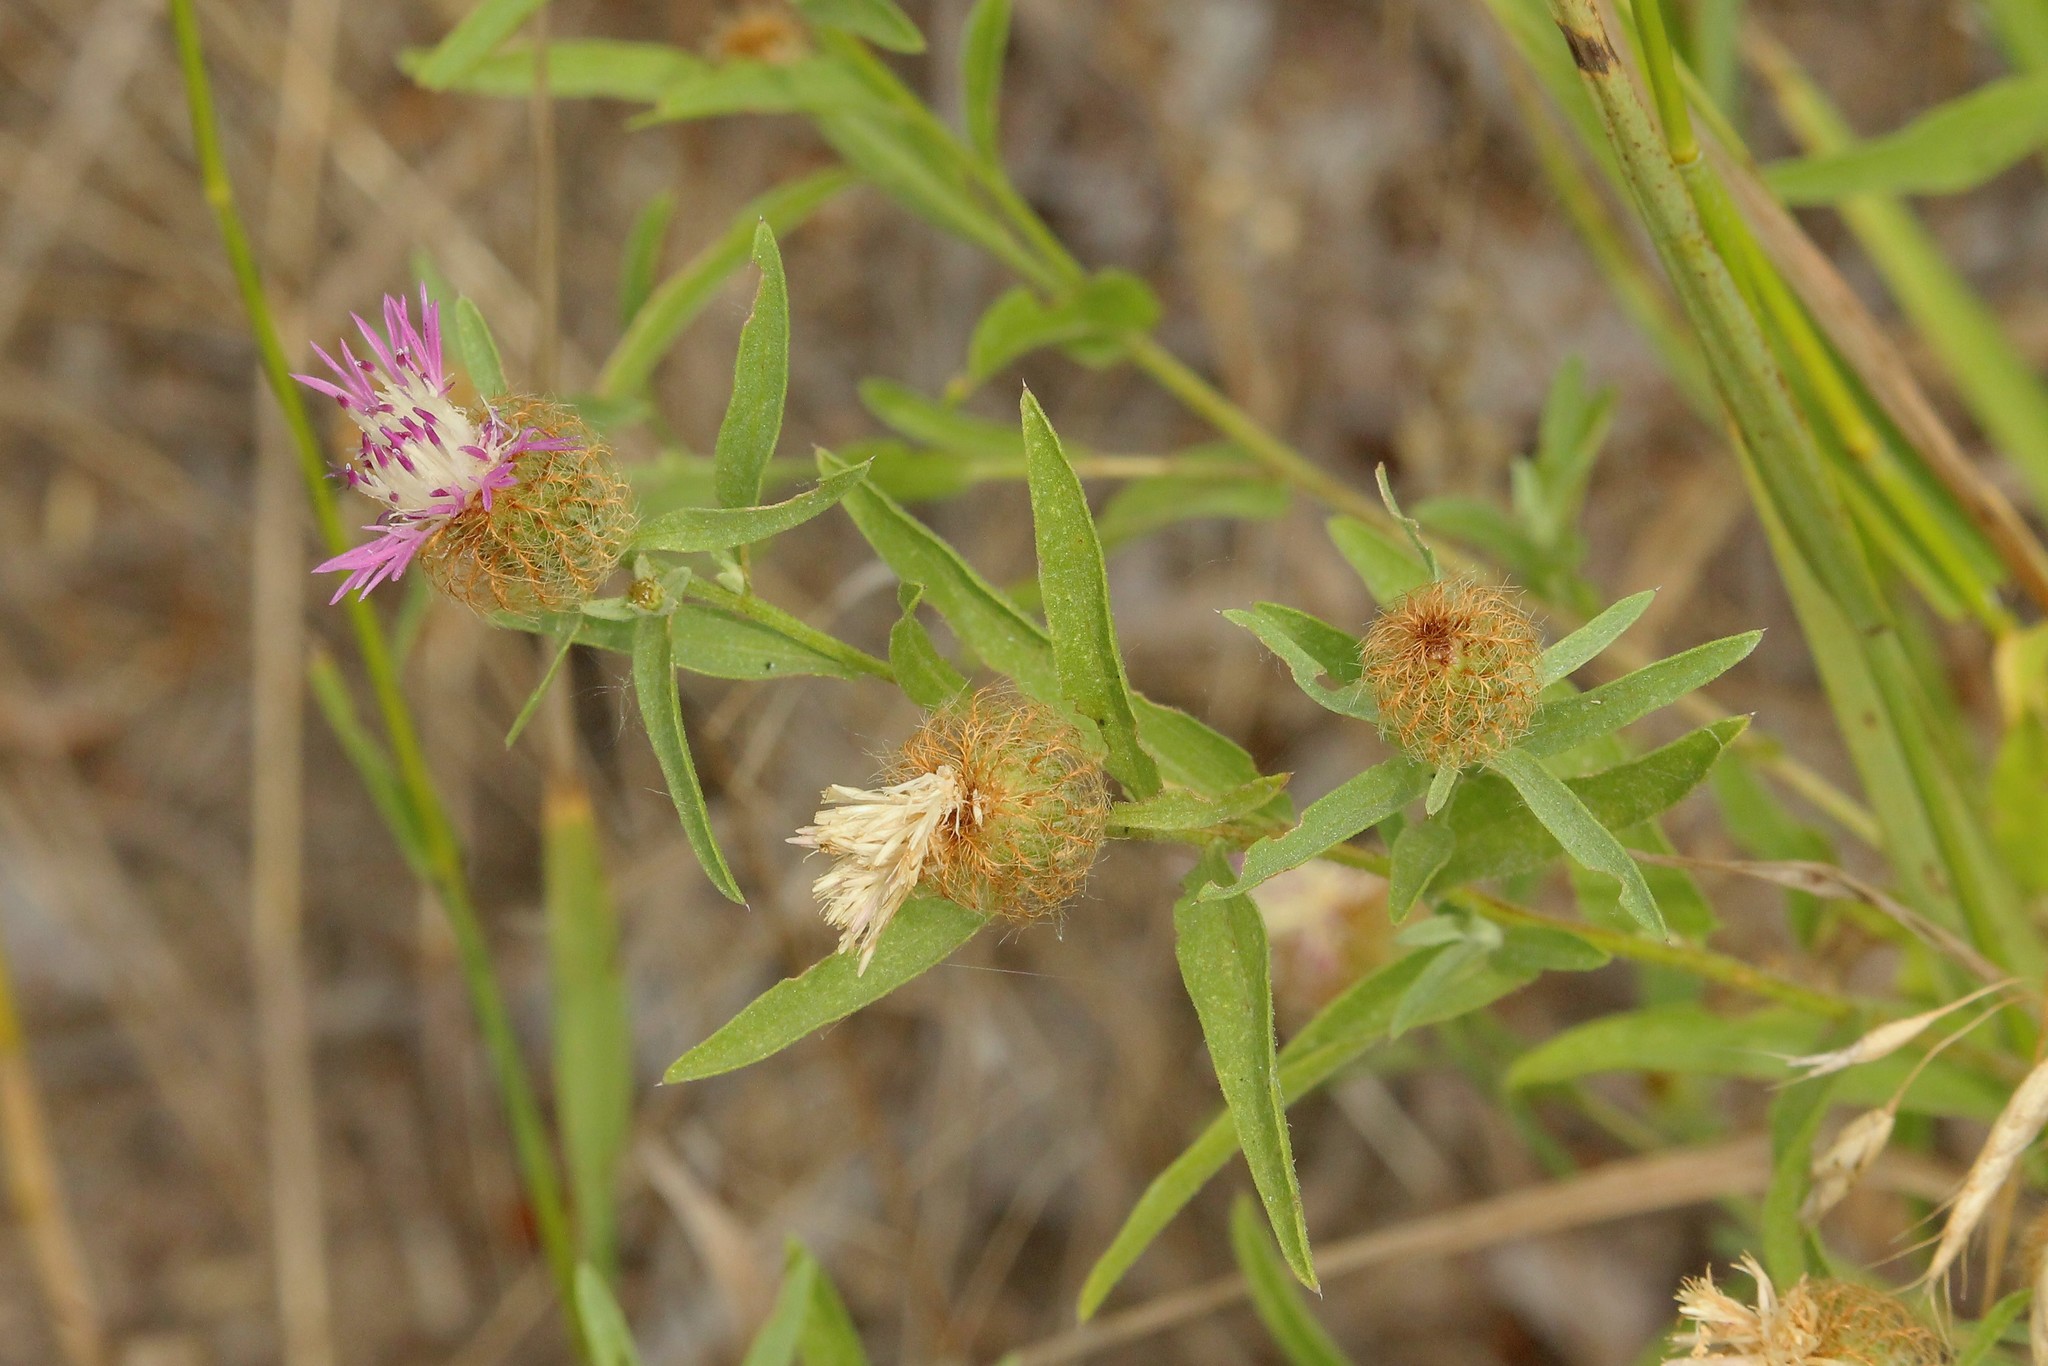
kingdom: Plantae
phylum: Tracheophyta
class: Magnoliopsida
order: Asterales
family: Asteraceae
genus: Centaurea
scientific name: Centaurea trichocephala
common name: Feather-head knapweed
